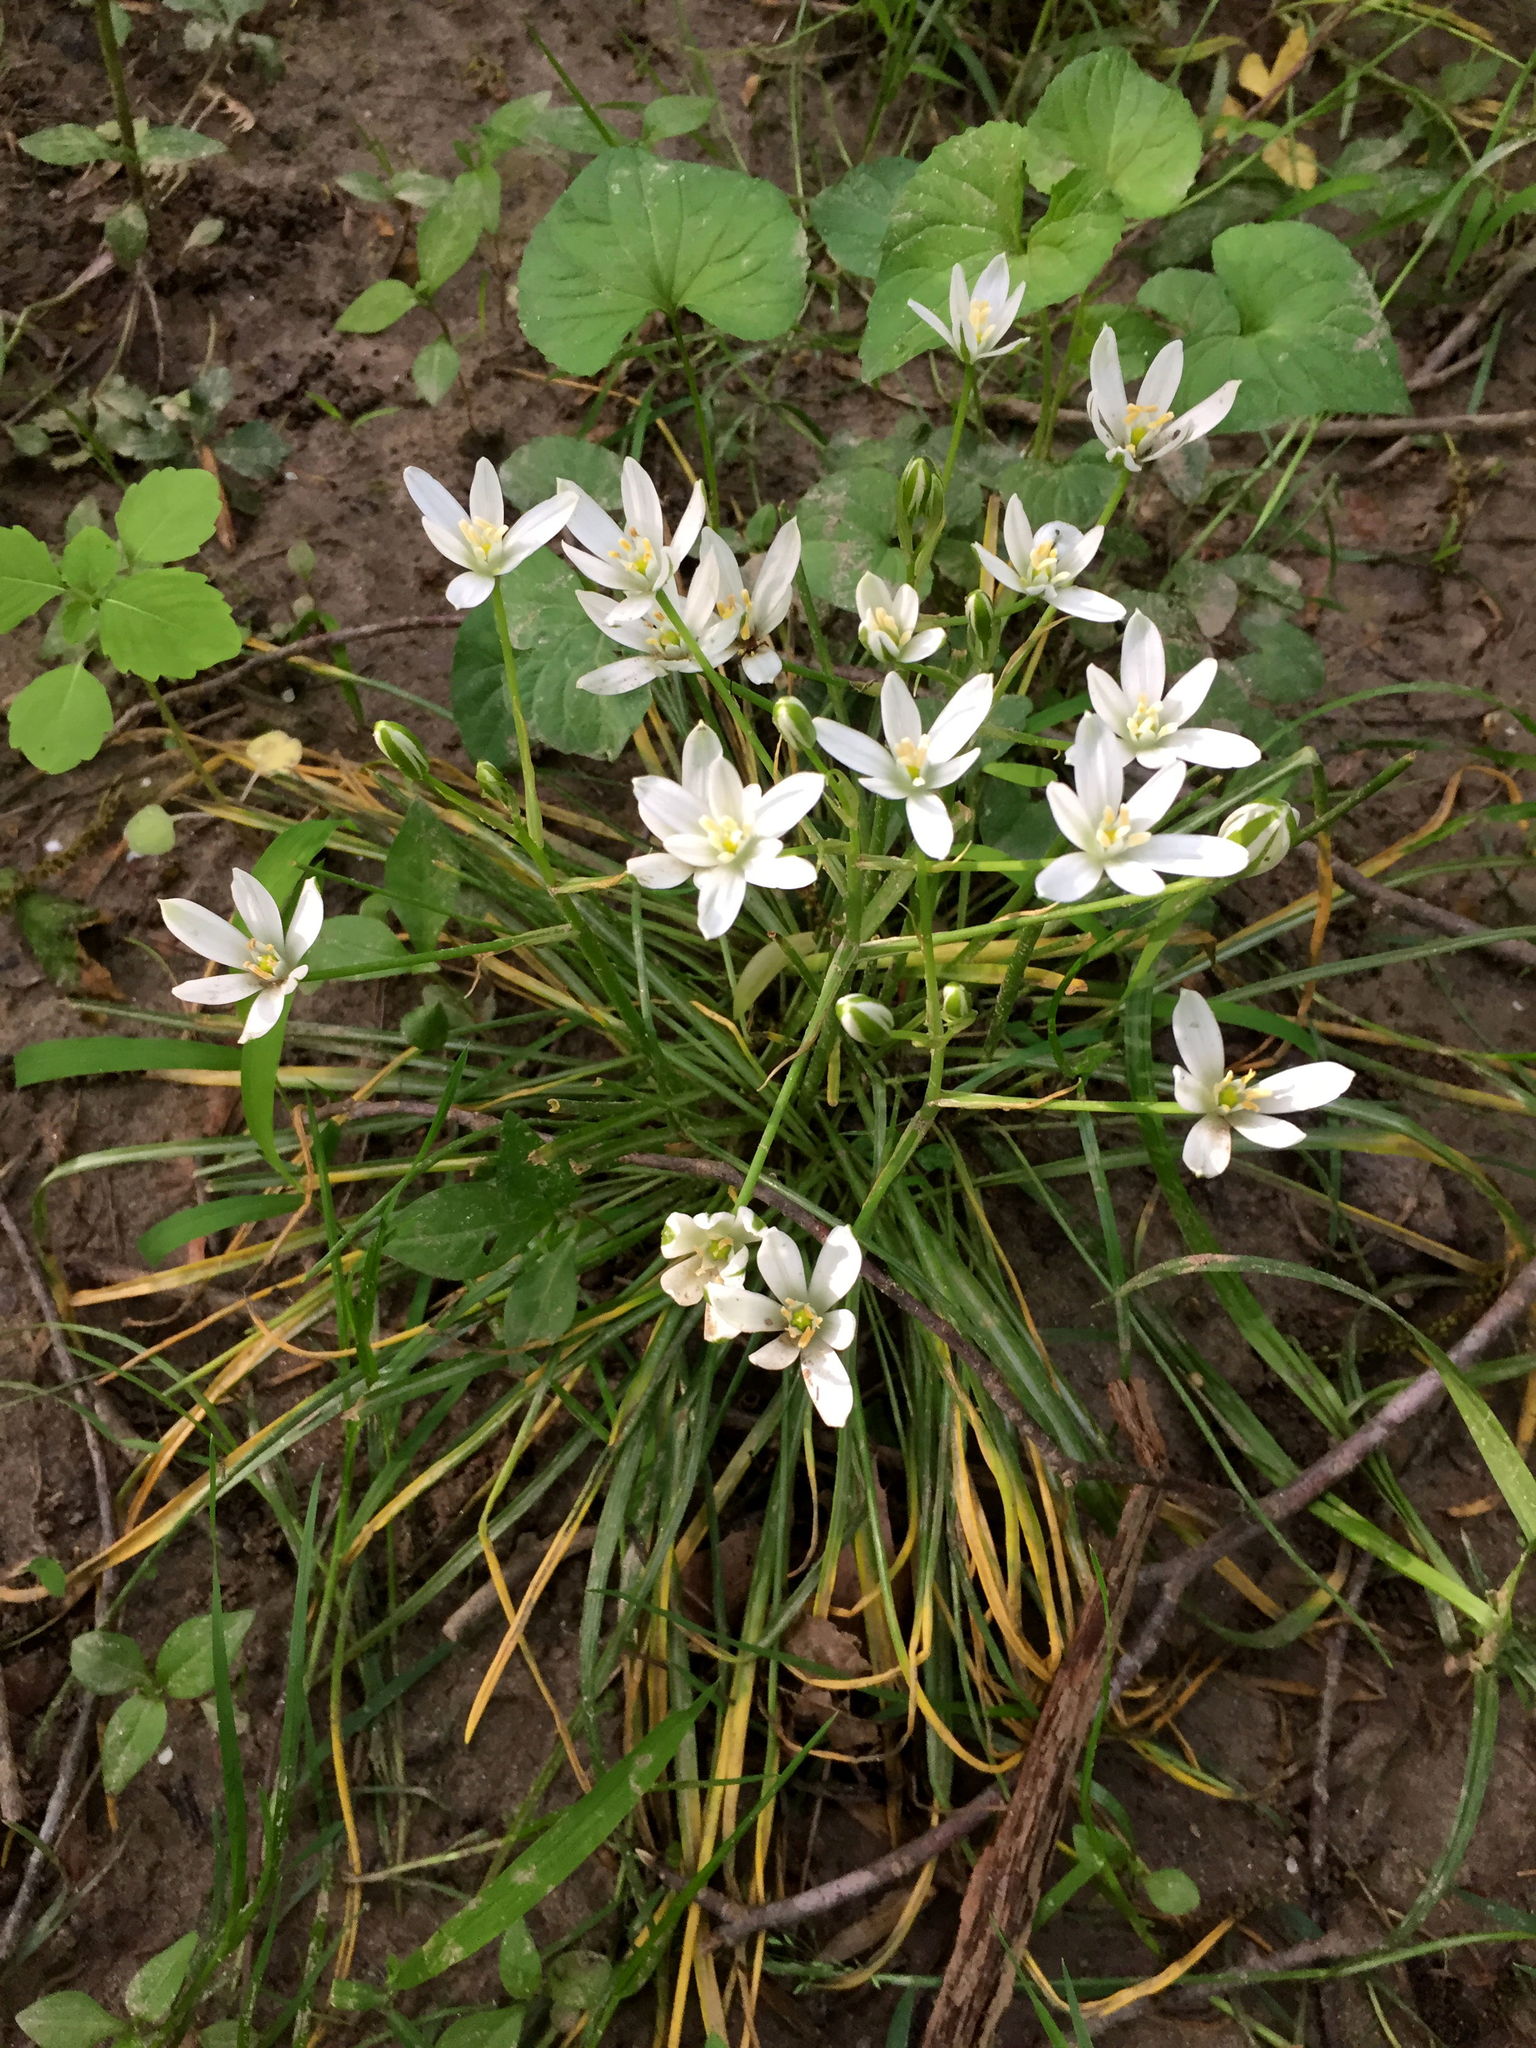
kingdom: Plantae
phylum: Tracheophyta
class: Liliopsida
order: Asparagales
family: Asparagaceae
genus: Ornithogalum
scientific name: Ornithogalum umbellatum
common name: Garden star-of-bethlehem
